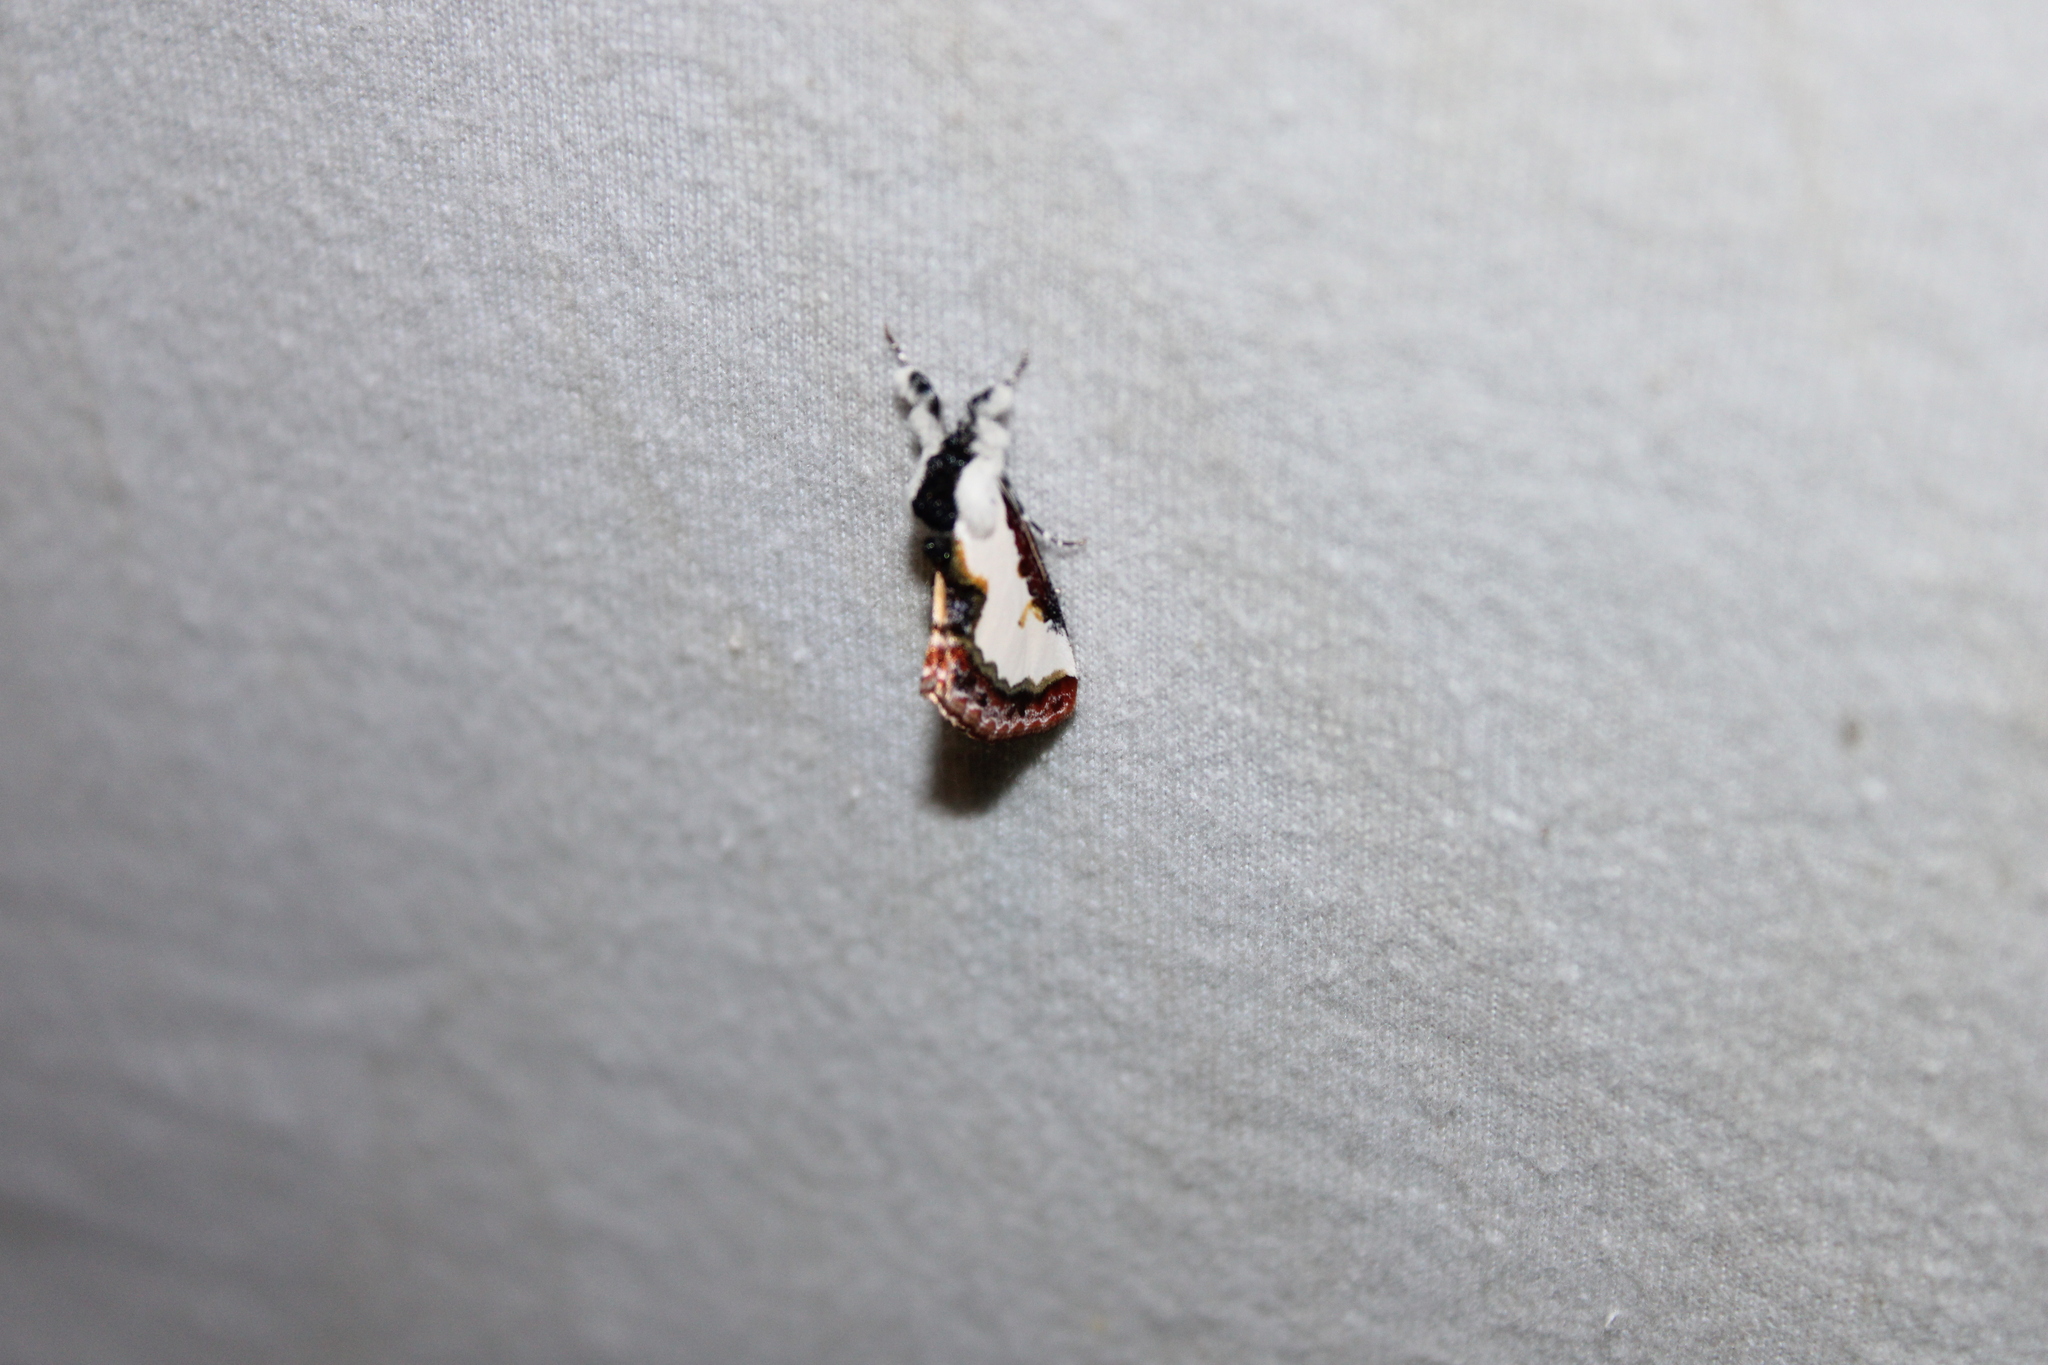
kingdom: Animalia
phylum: Arthropoda
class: Insecta
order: Lepidoptera
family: Noctuidae
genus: Eudryas
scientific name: Eudryas unio
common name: Pearly wood-nymph
